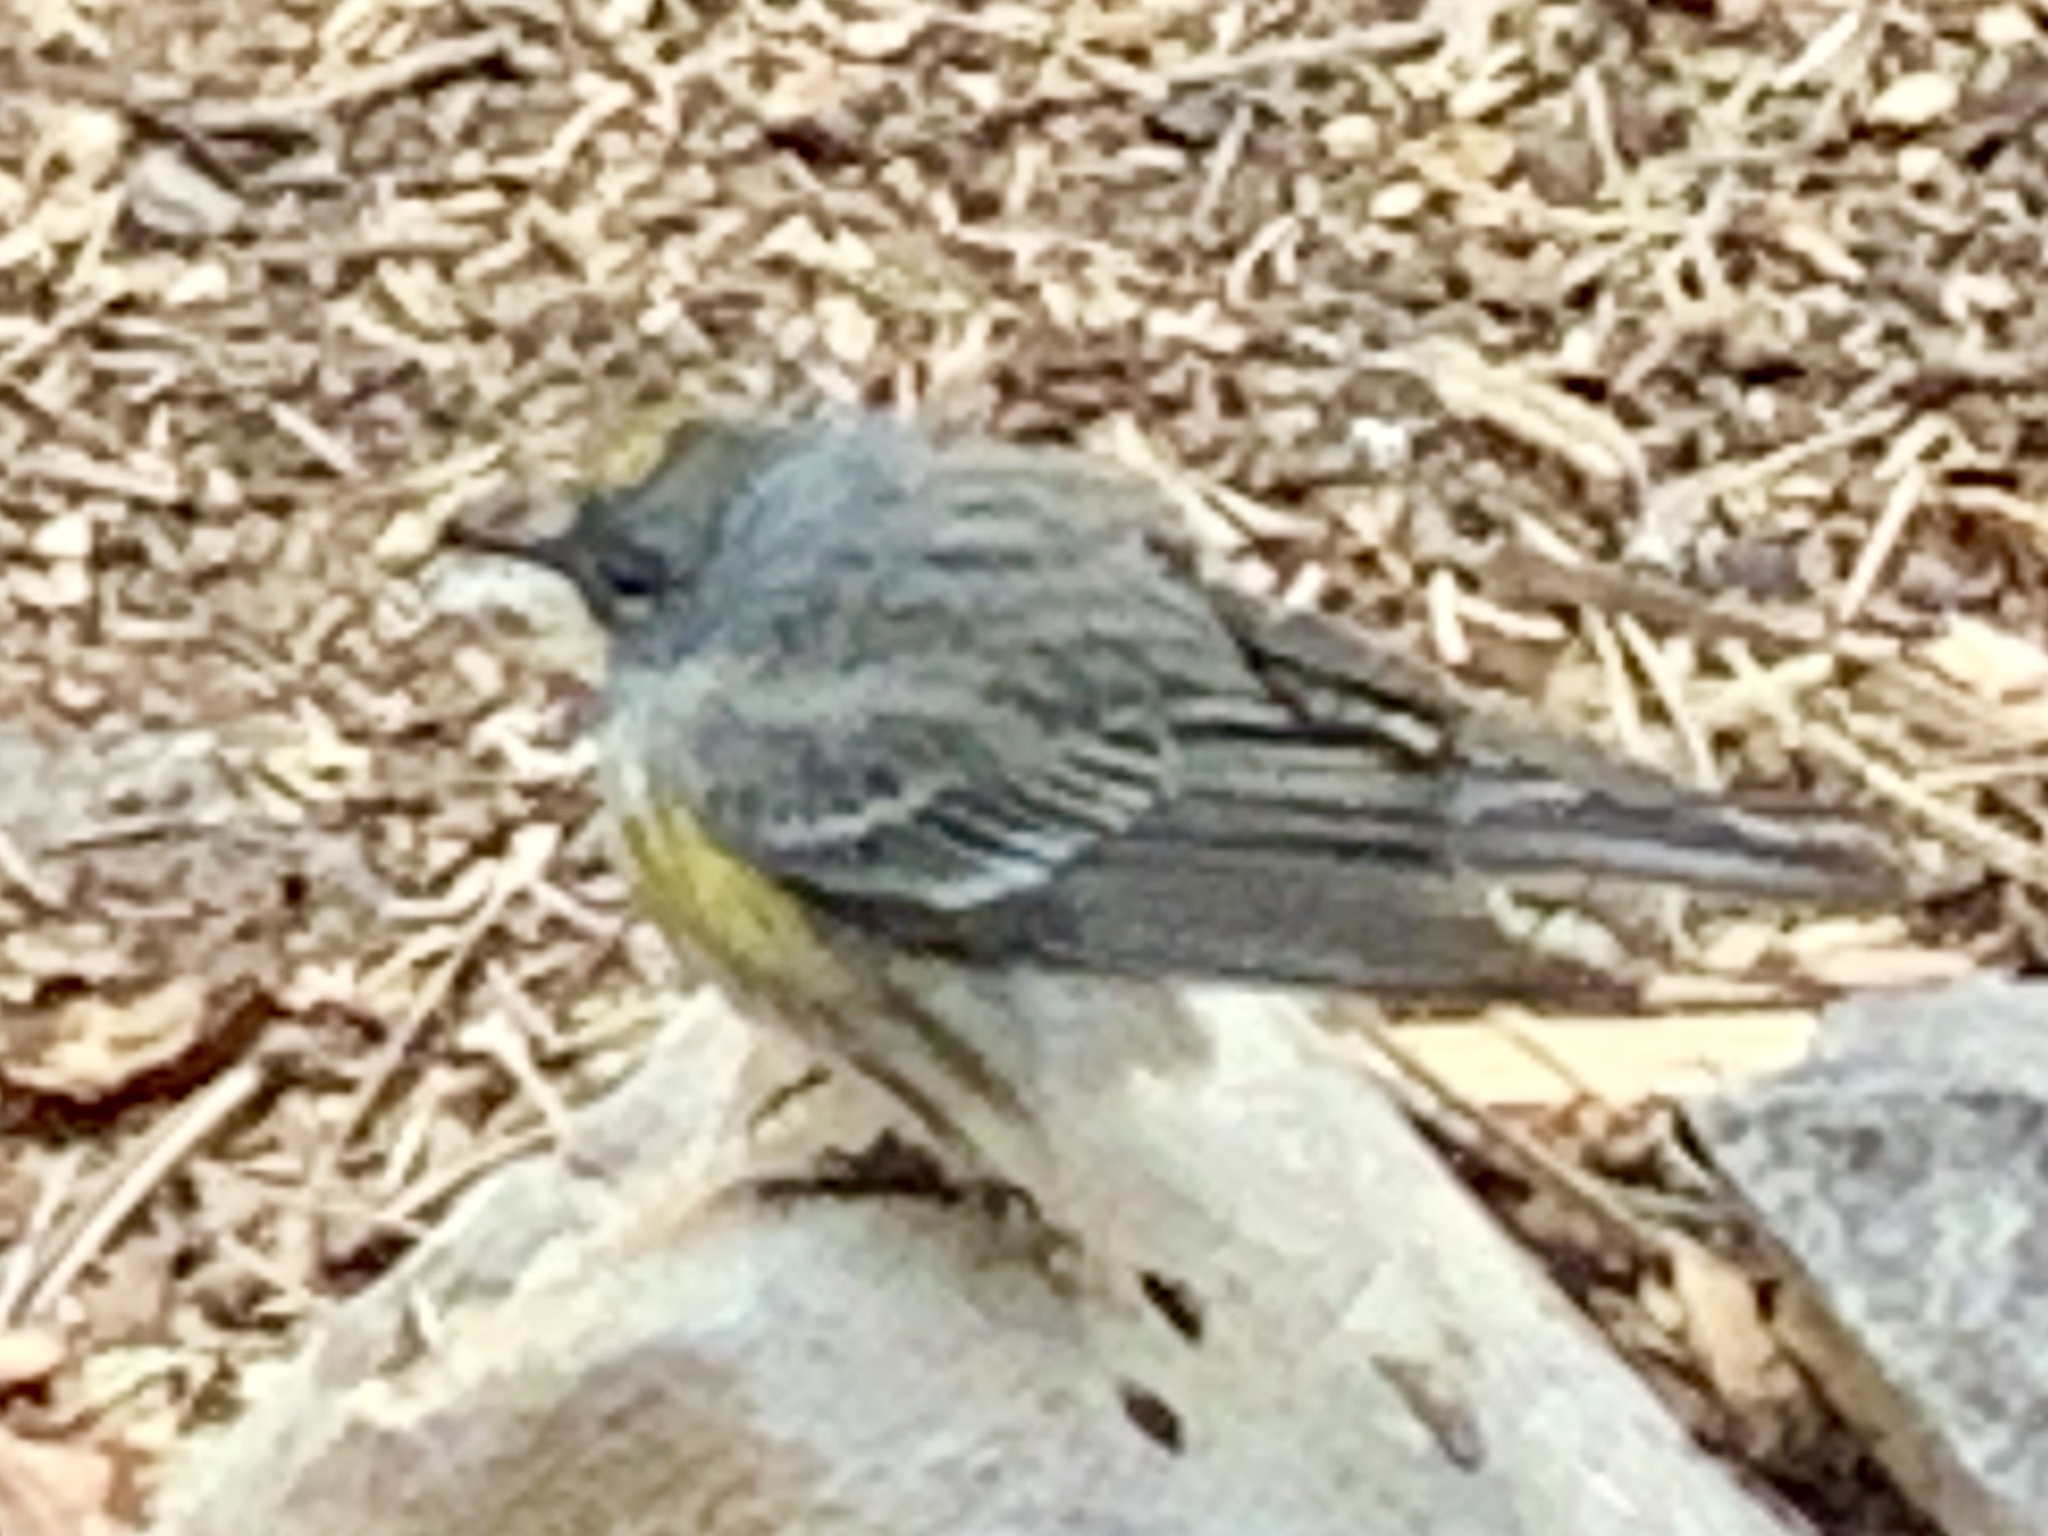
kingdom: Animalia
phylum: Chordata
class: Aves
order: Passeriformes
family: Parulidae
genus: Setophaga
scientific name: Setophaga coronata
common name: Myrtle warbler
